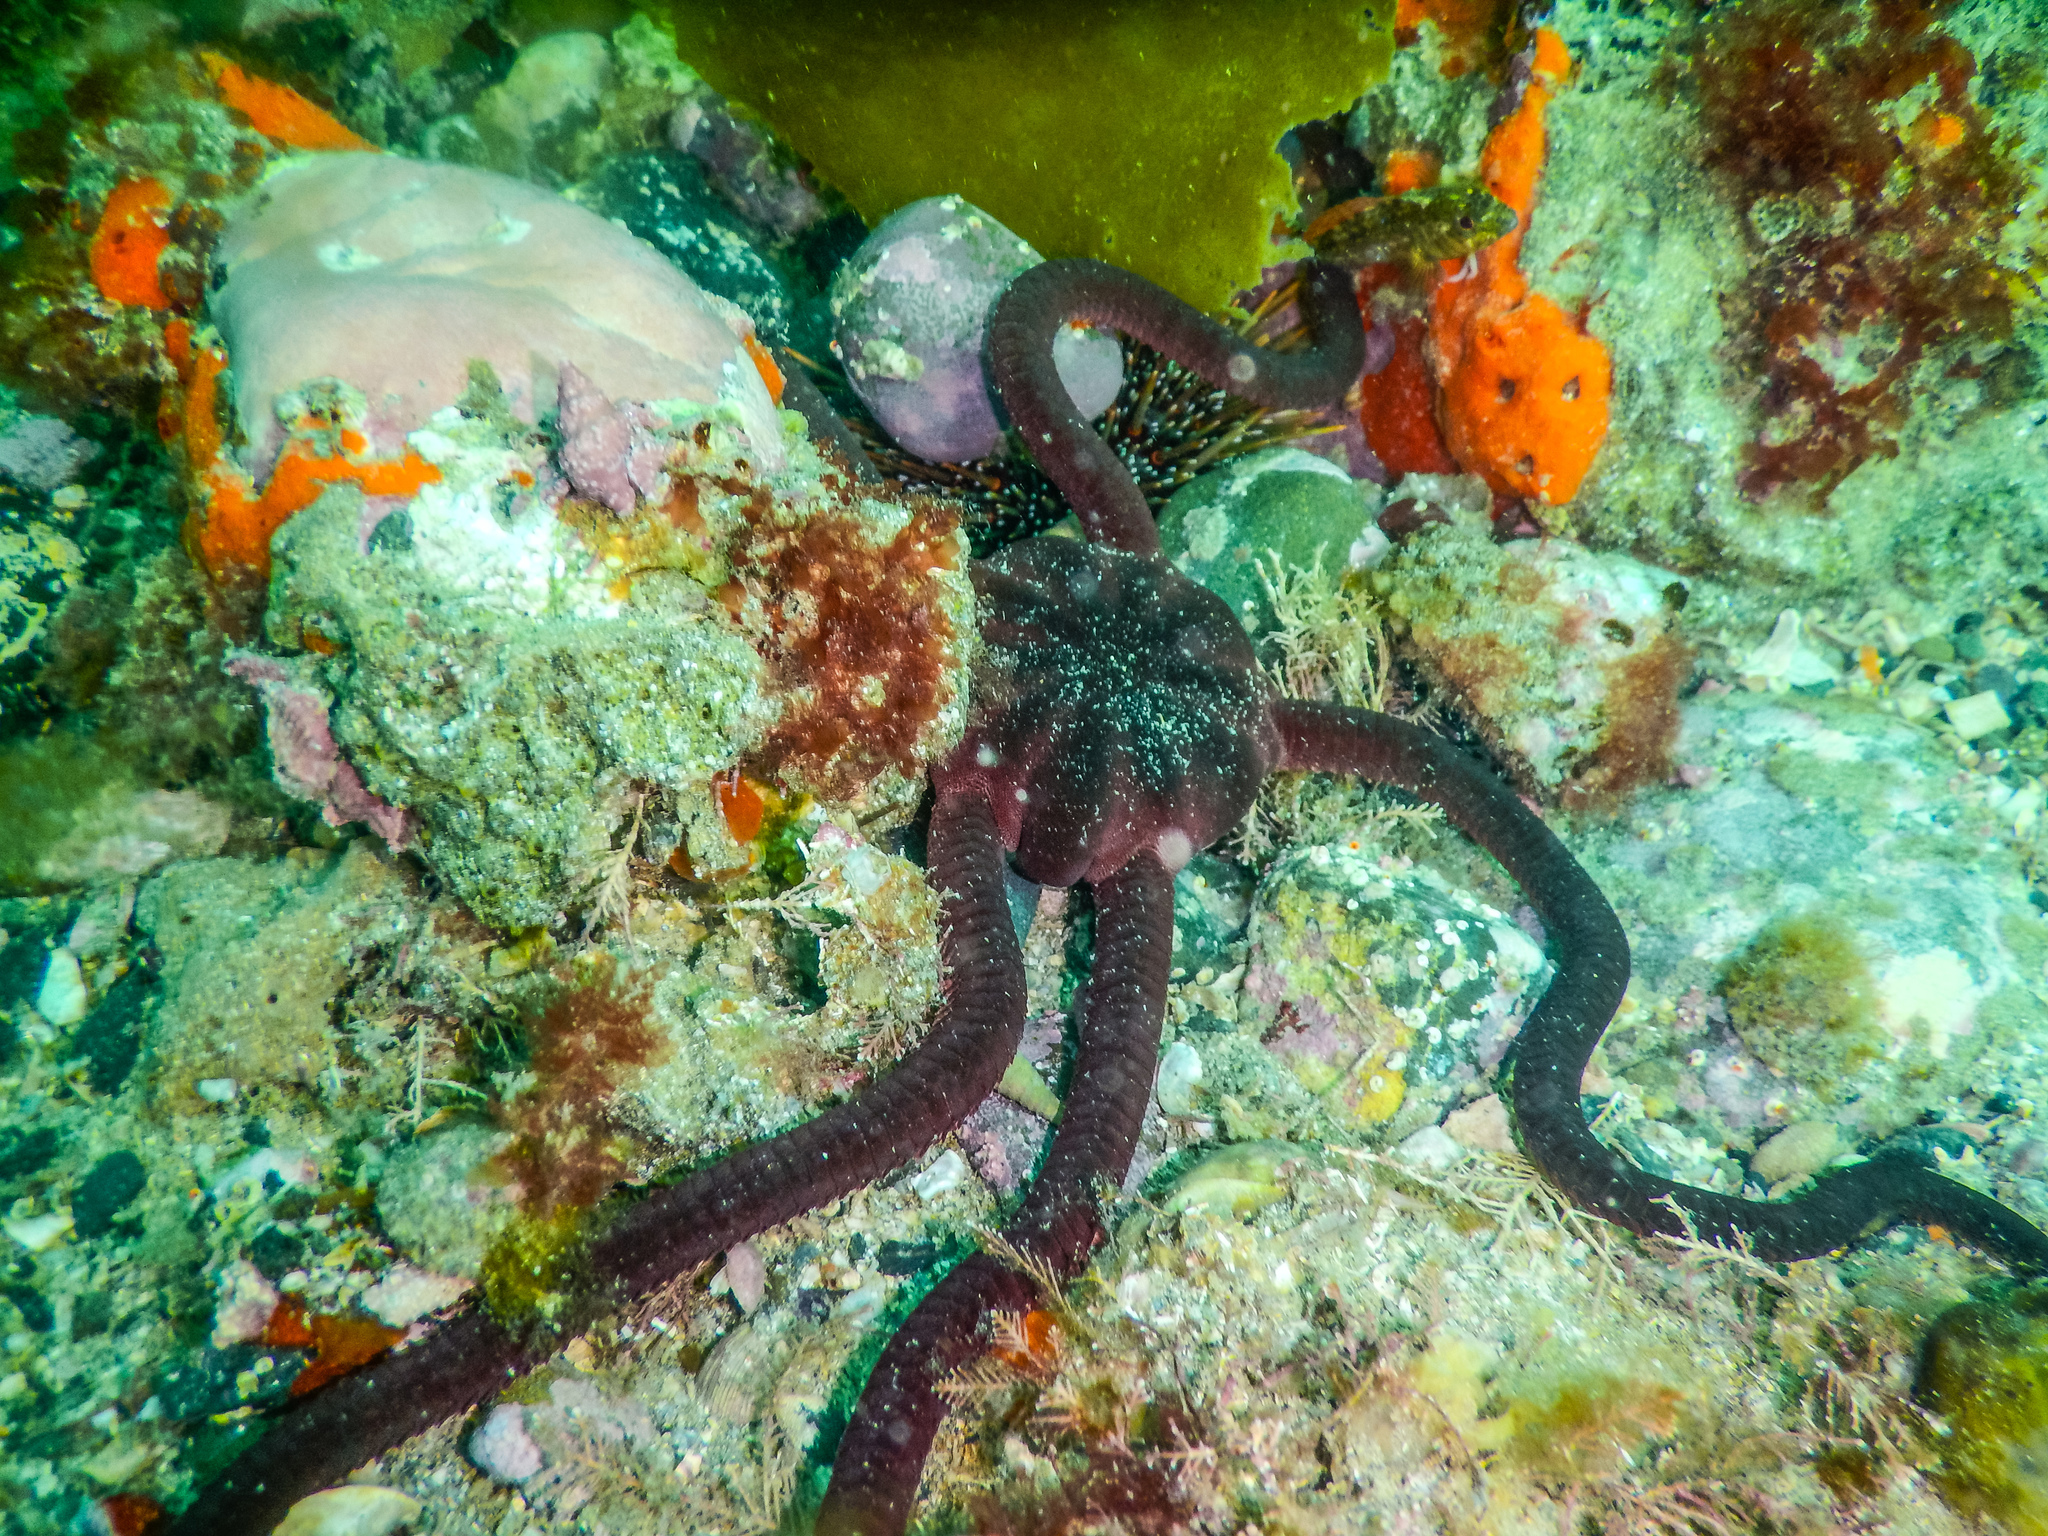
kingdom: Animalia
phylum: Echinodermata
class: Ophiuroidea
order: Ophiacanthida
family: Ophiodermatidae
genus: Ophiopsammus
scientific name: Ophiopsammus maculata
